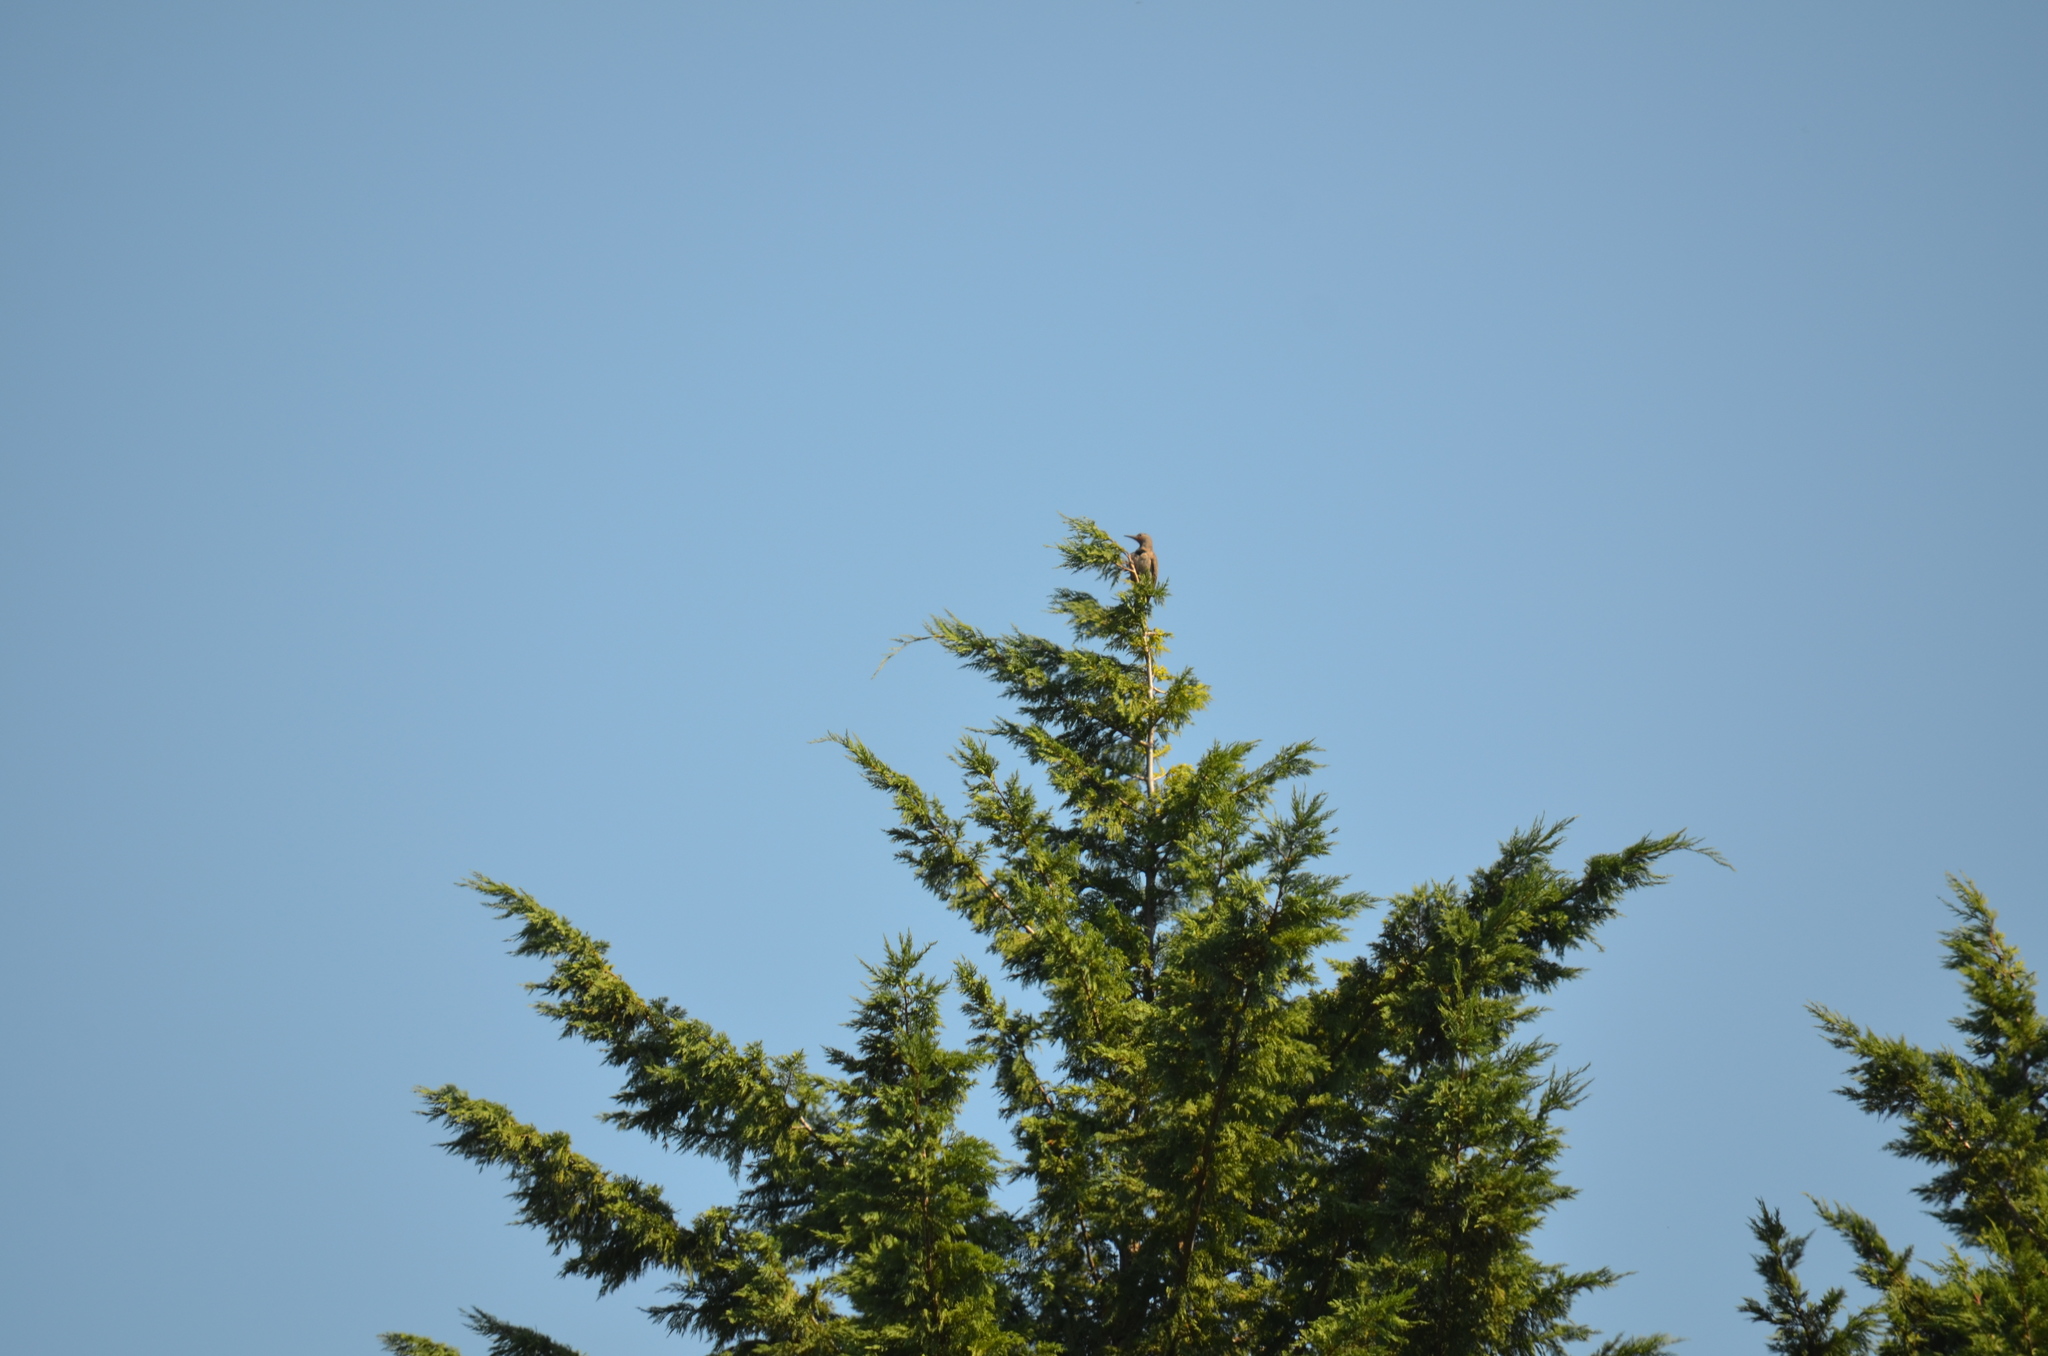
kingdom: Animalia
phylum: Chordata
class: Aves
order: Piciformes
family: Picidae
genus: Colaptes
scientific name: Colaptes auratus
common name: Northern flicker
